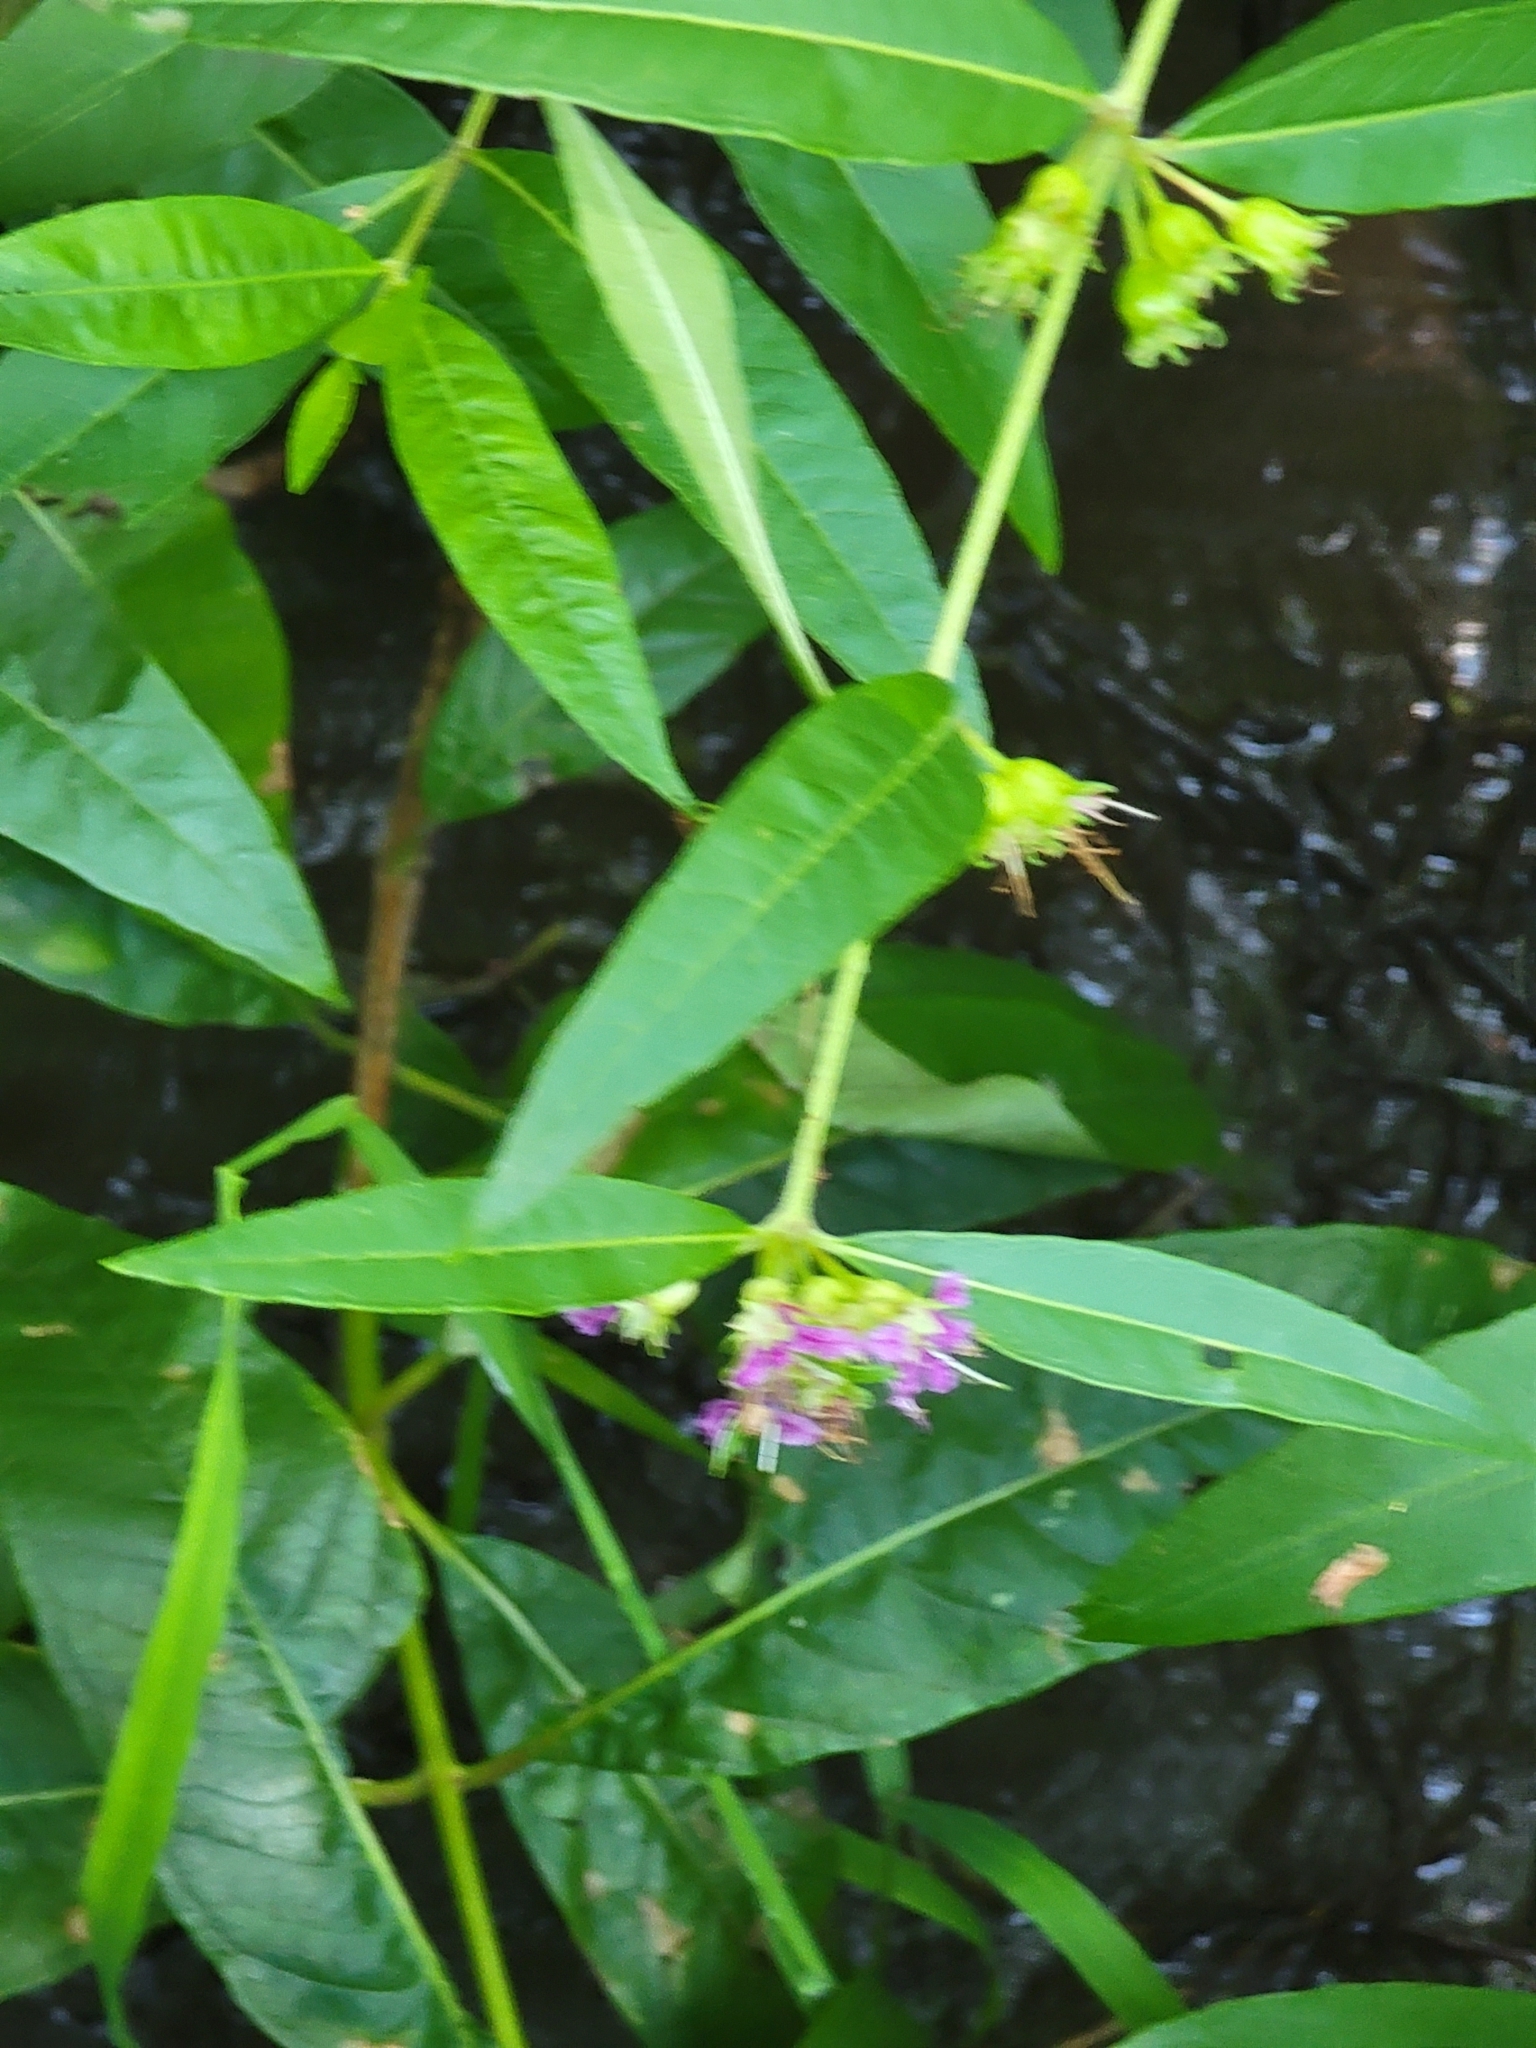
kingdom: Plantae
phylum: Tracheophyta
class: Magnoliopsida
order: Myrtales
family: Lythraceae
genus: Decodon
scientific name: Decodon verticillatus
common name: Hairy swamp loosestrife
